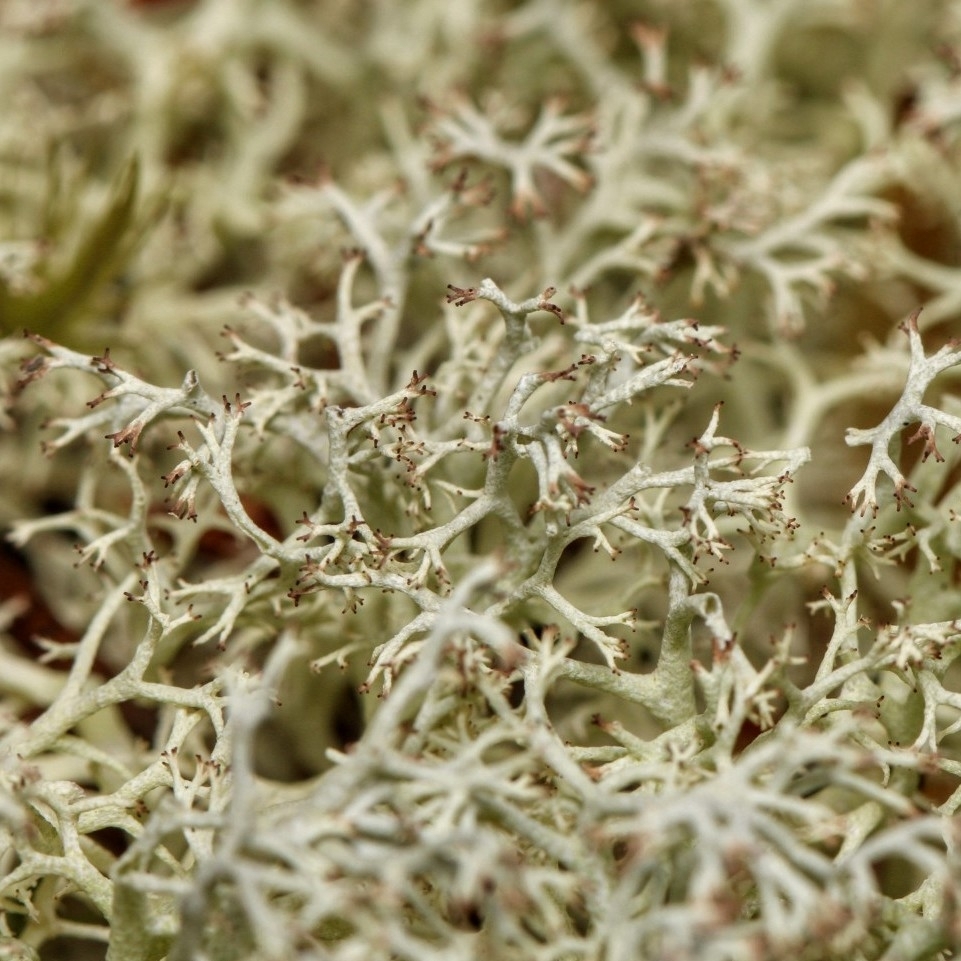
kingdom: Fungi
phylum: Ascomycota
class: Lecanoromycetes
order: Lecanorales
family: Cladoniaceae
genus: Cladonia
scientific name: Cladonia subtenuis
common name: Dixie reindeer lichen
